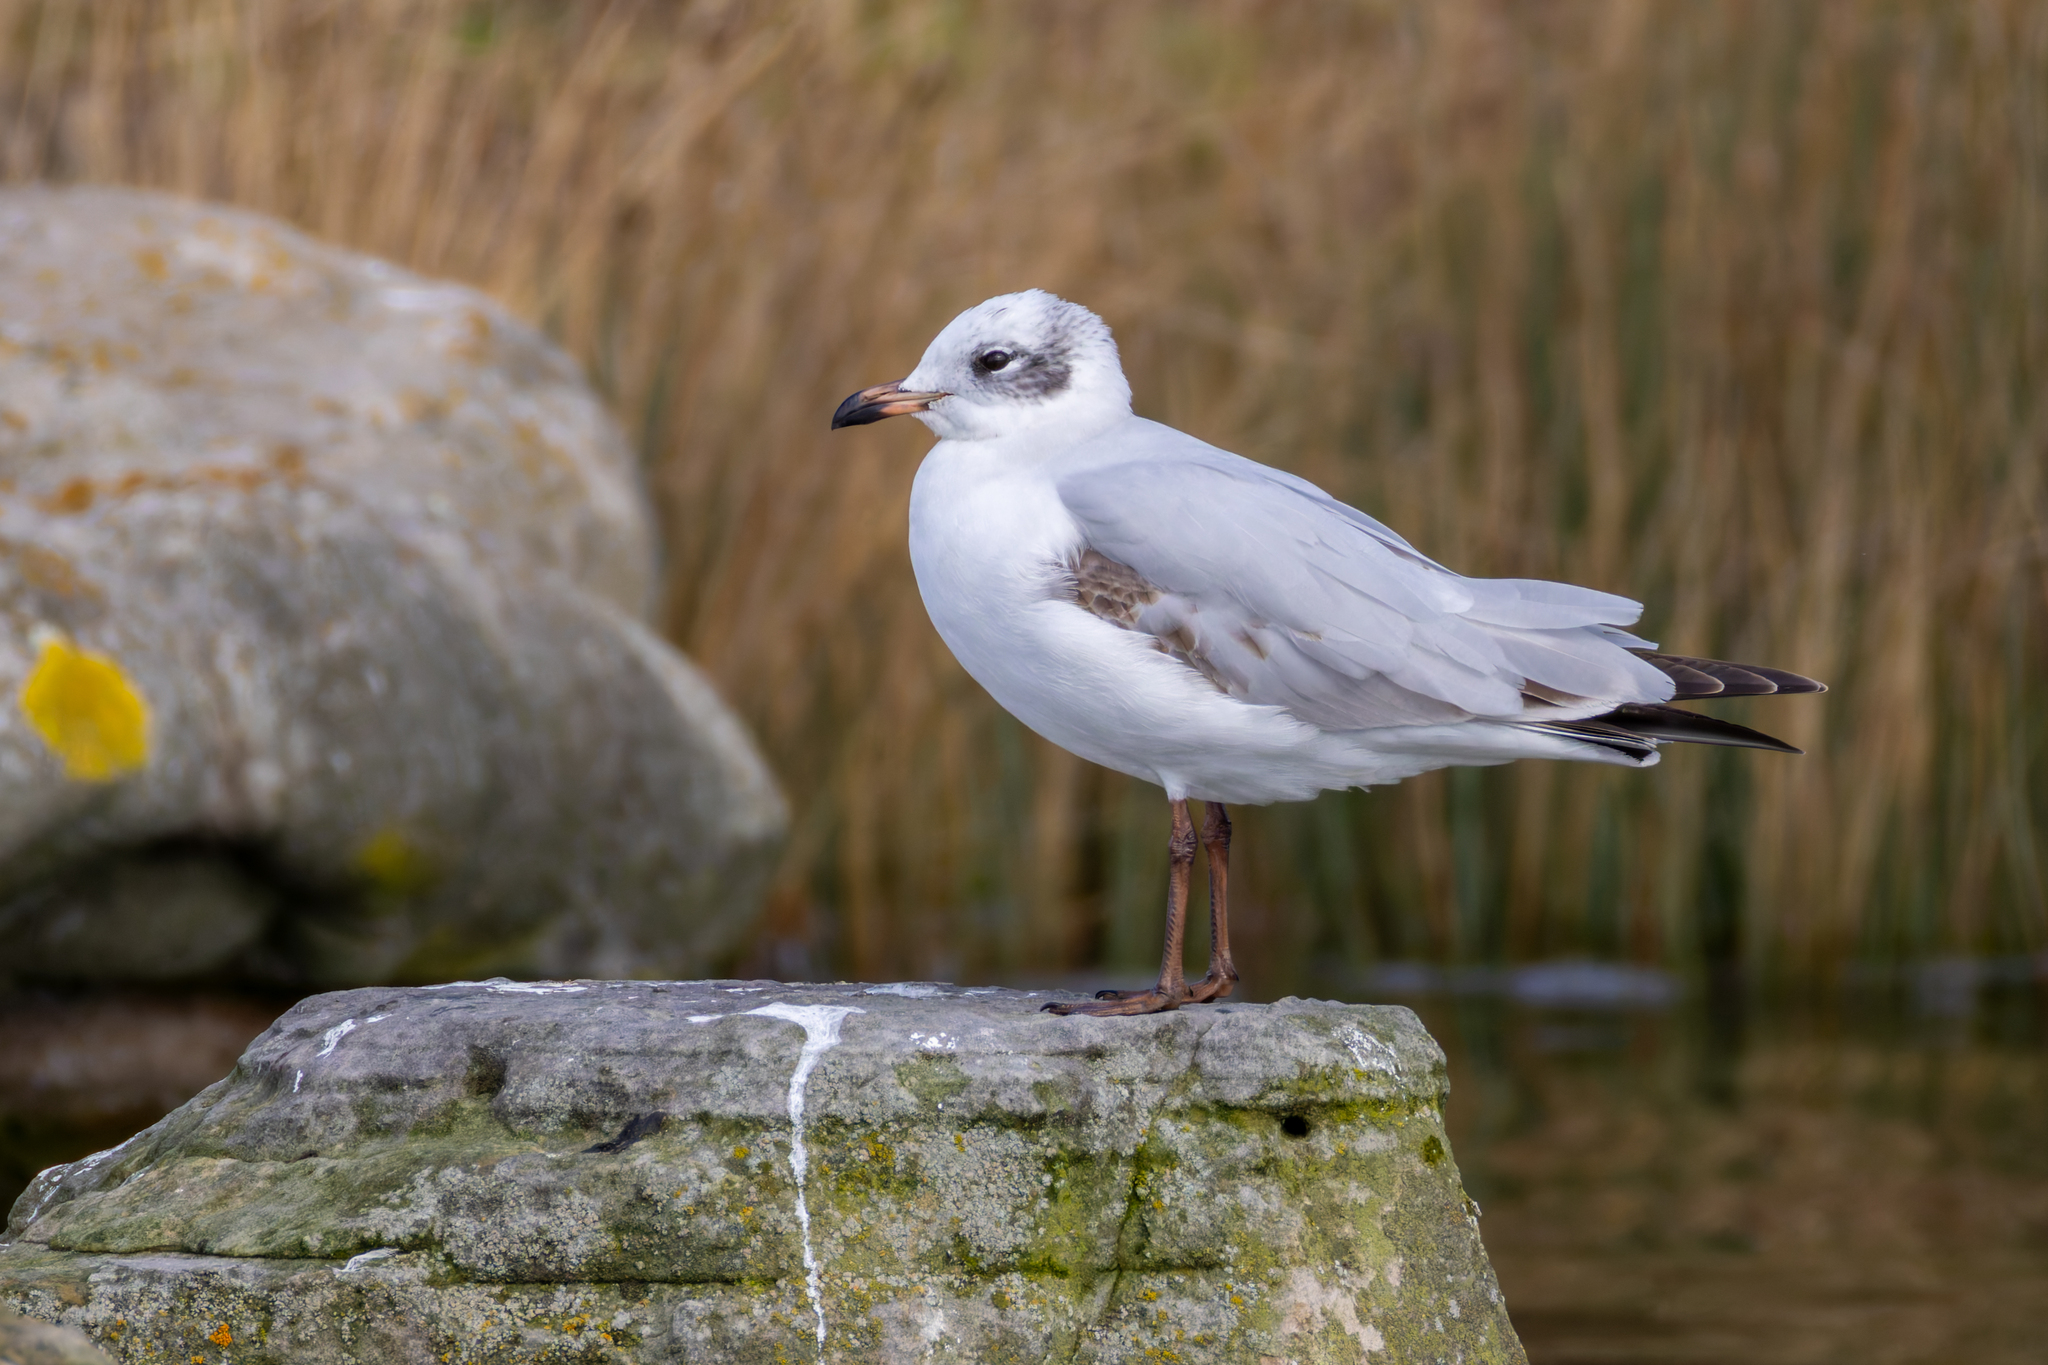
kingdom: Animalia
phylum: Chordata
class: Aves
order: Charadriiformes
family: Laridae
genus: Ichthyaetus
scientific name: Ichthyaetus melanocephalus
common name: Mediterranean gull
